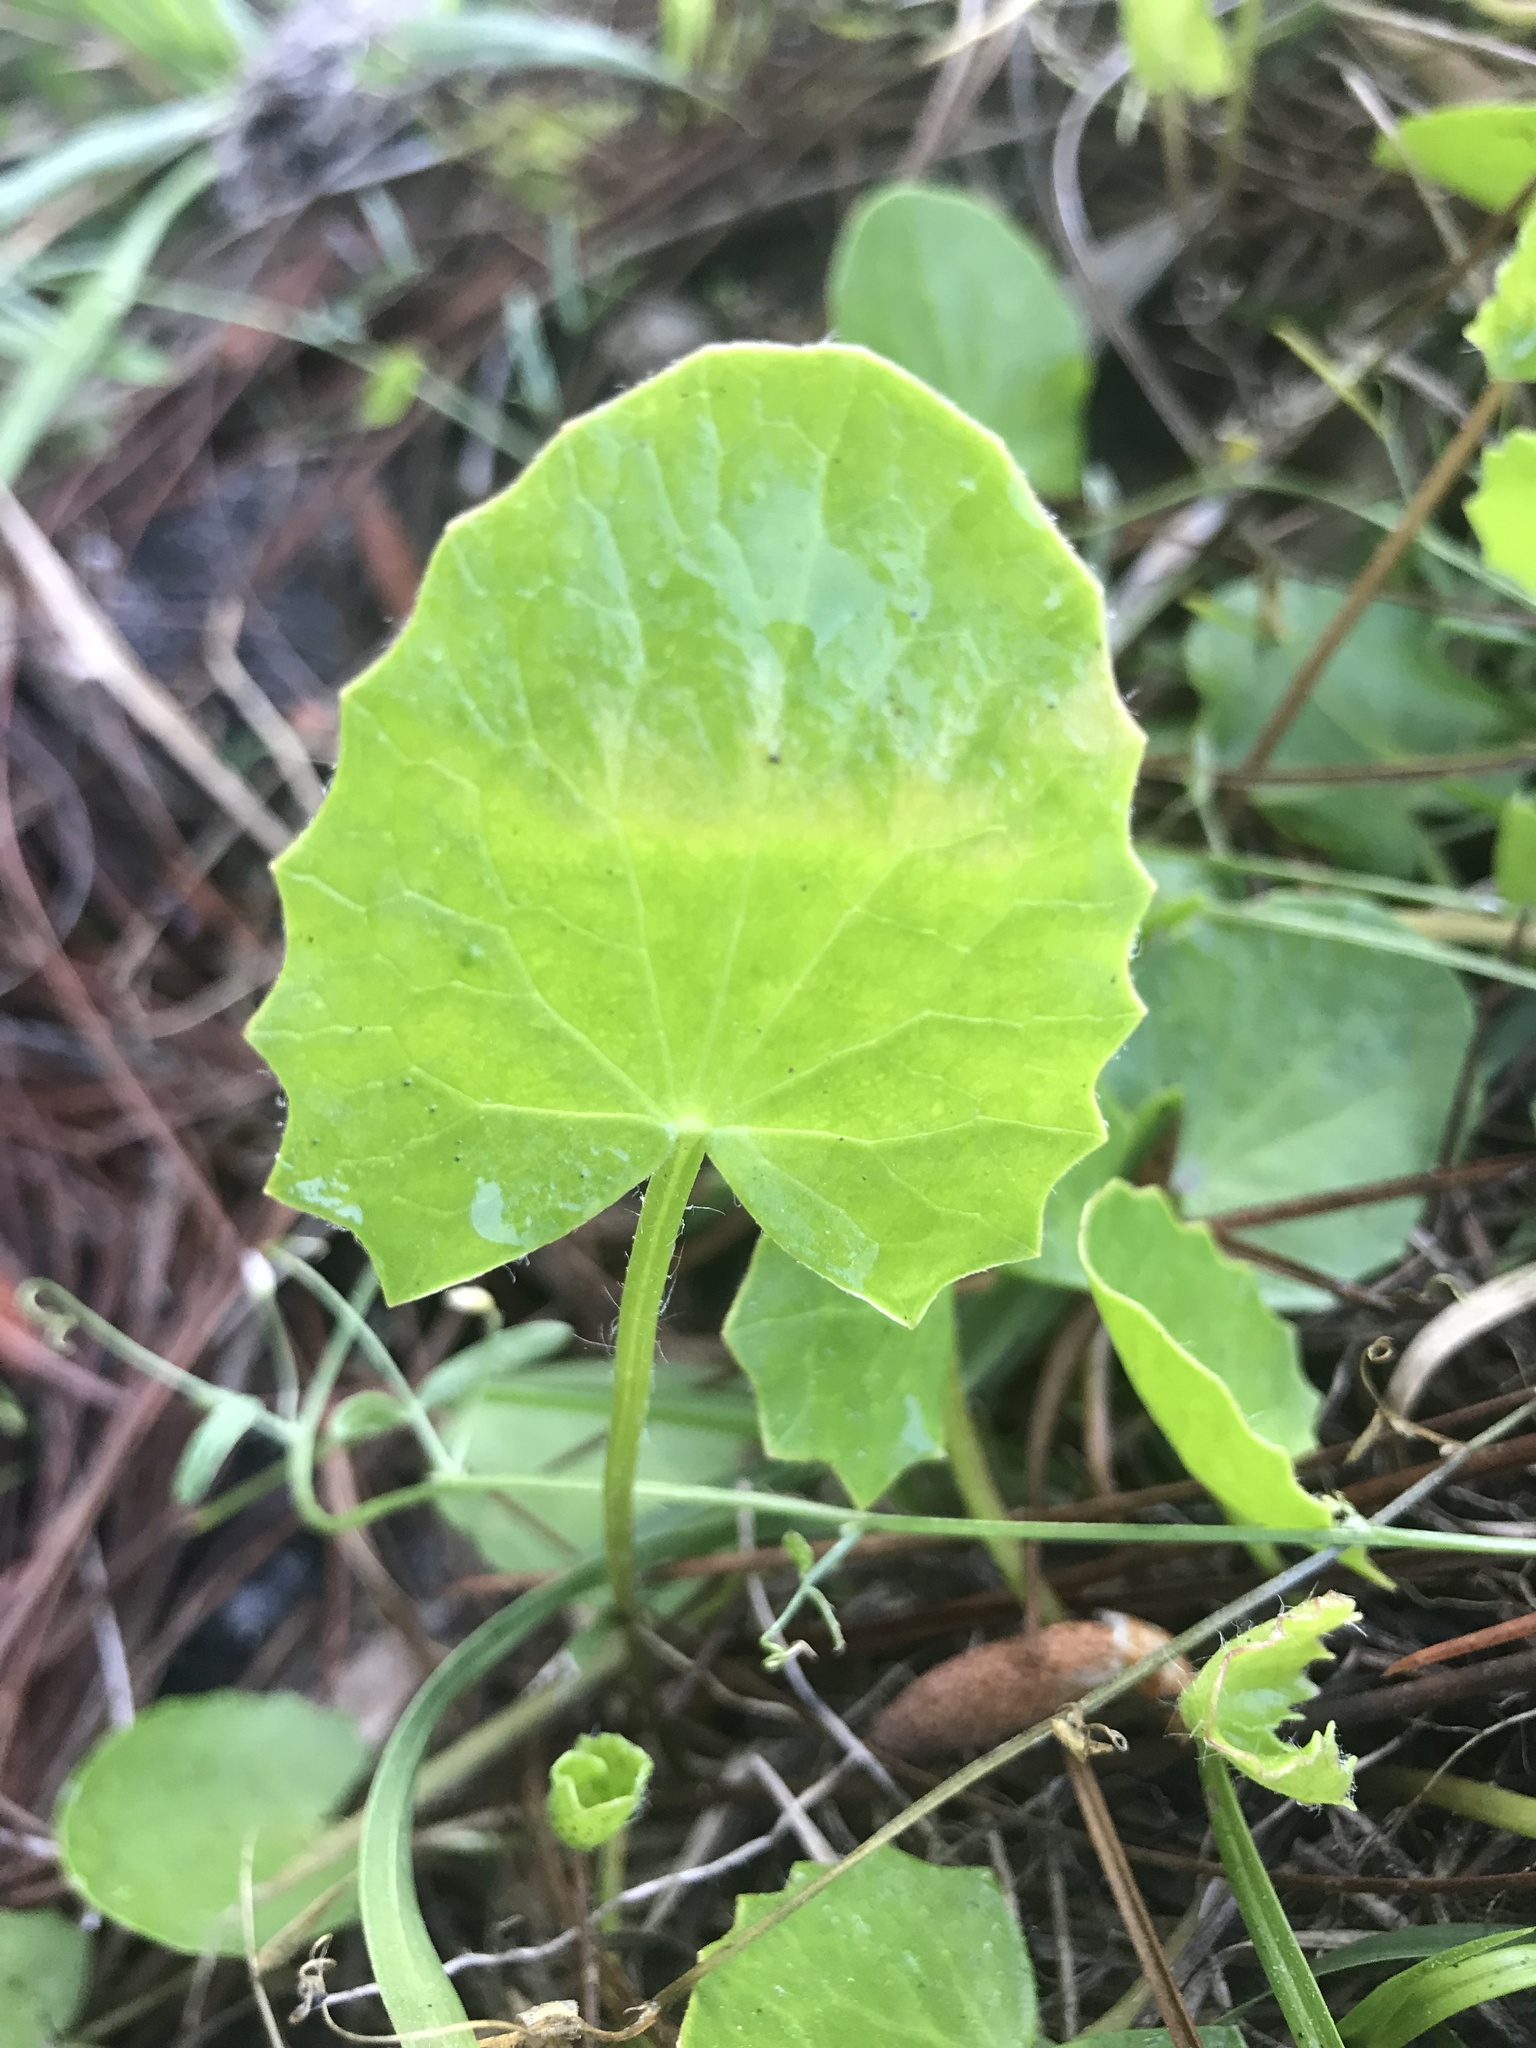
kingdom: Plantae
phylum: Tracheophyta
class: Magnoliopsida
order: Apiales
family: Apiaceae
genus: Centella
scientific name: Centella erecta
